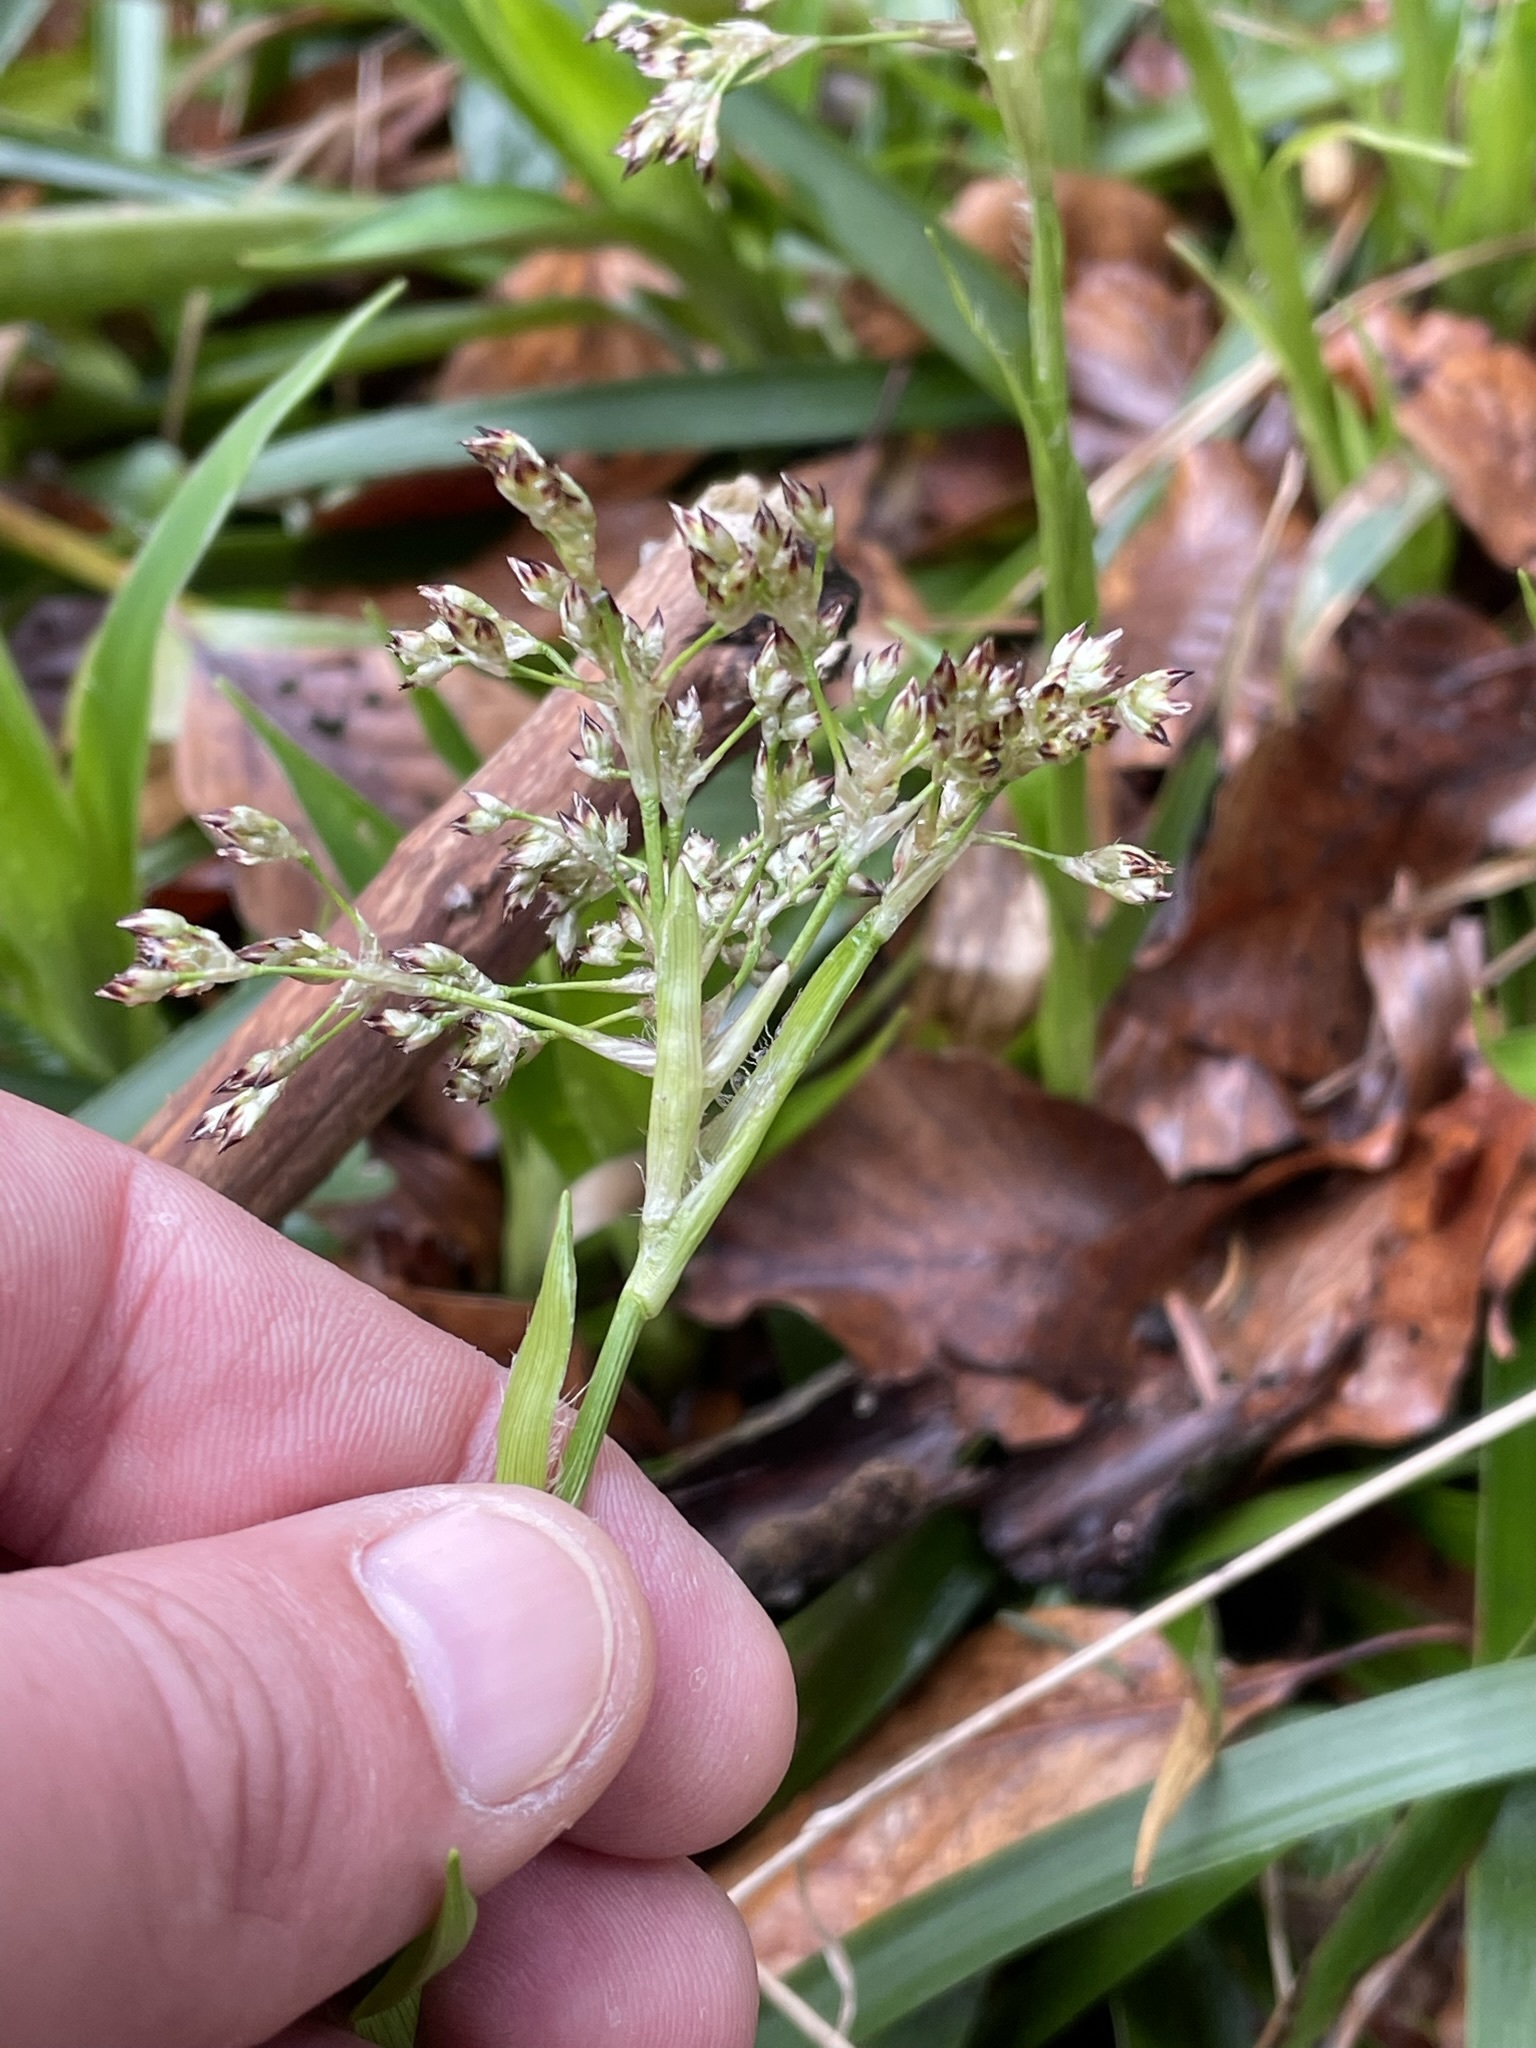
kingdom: Plantae
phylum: Tracheophyta
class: Liliopsida
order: Poales
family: Juncaceae
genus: Luzula
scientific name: Luzula sylvatica
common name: Great wood-rush
